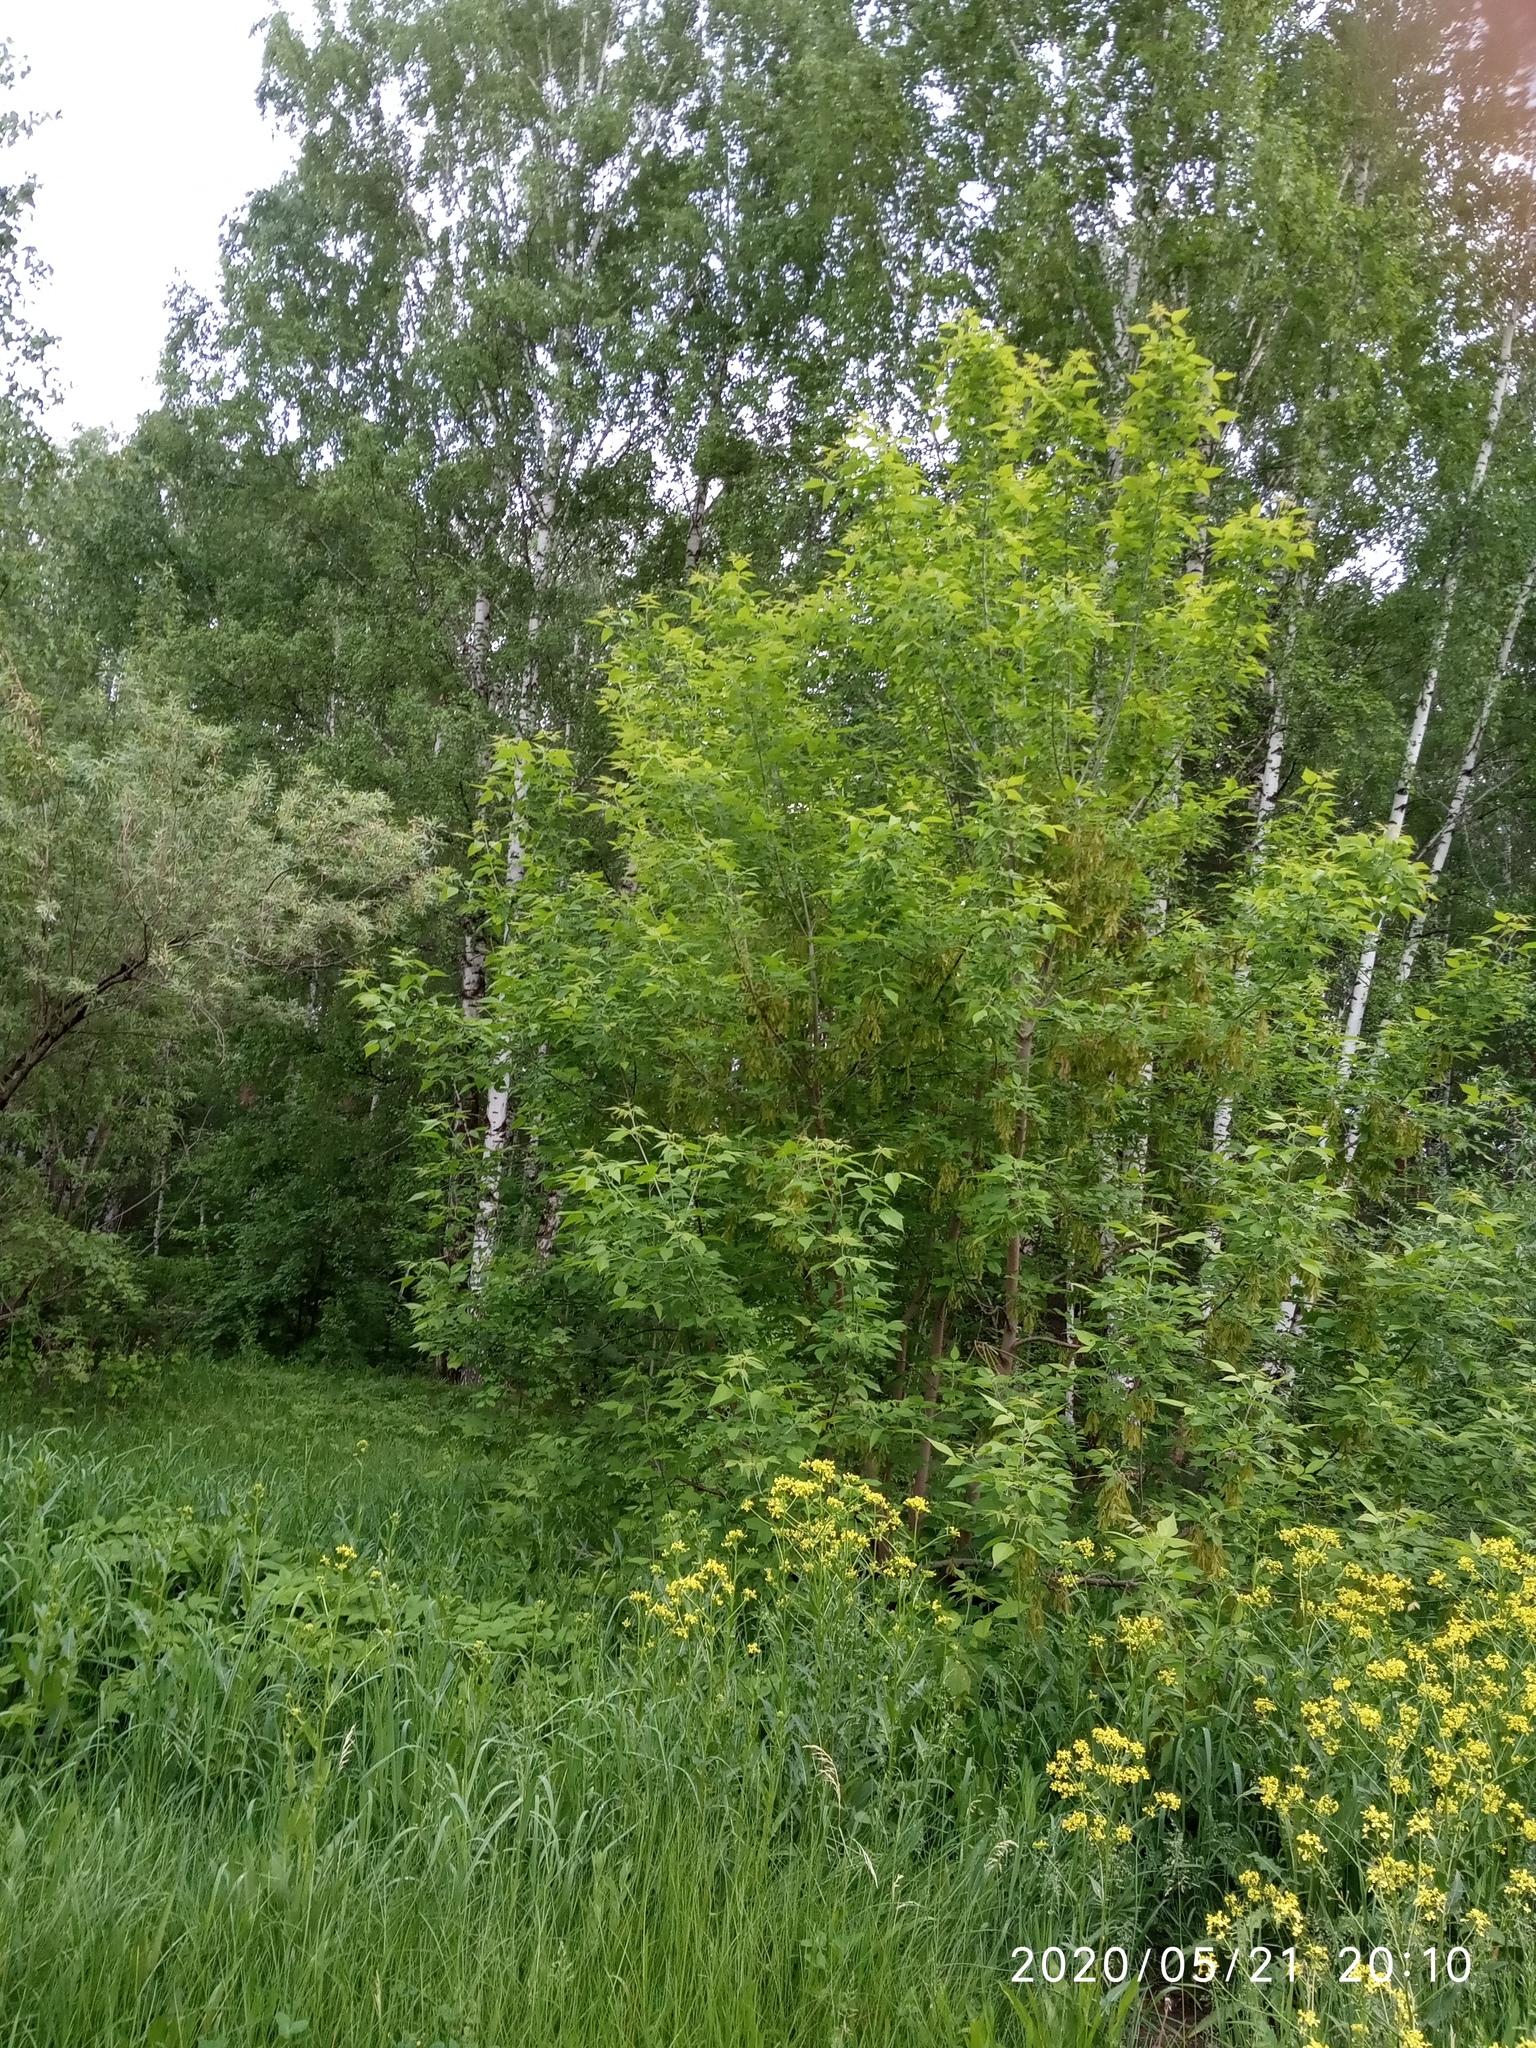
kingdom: Plantae
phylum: Tracheophyta
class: Magnoliopsida
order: Sapindales
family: Sapindaceae
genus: Acer
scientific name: Acer negundo
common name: Ashleaf maple
